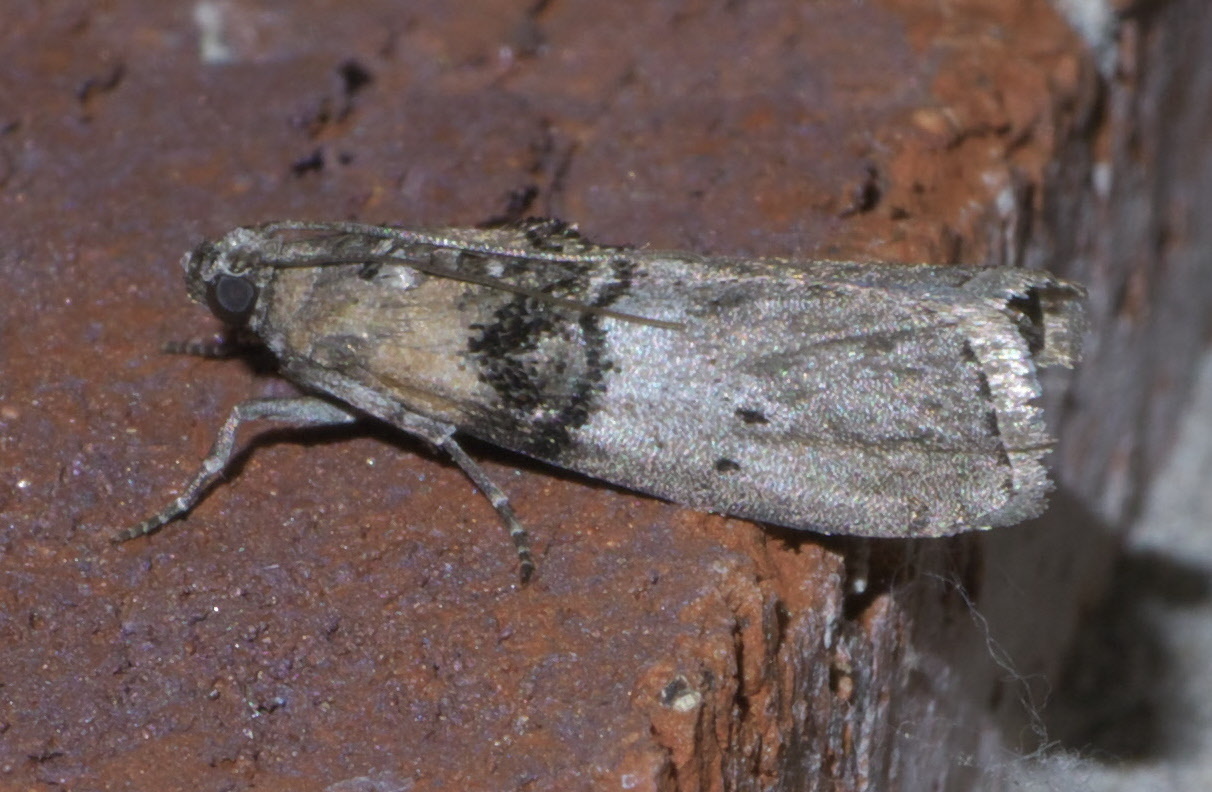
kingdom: Animalia
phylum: Arthropoda
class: Insecta
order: Lepidoptera
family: Pyralidae
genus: Tlascala
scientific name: Tlascala reductella
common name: Tlascala moth
